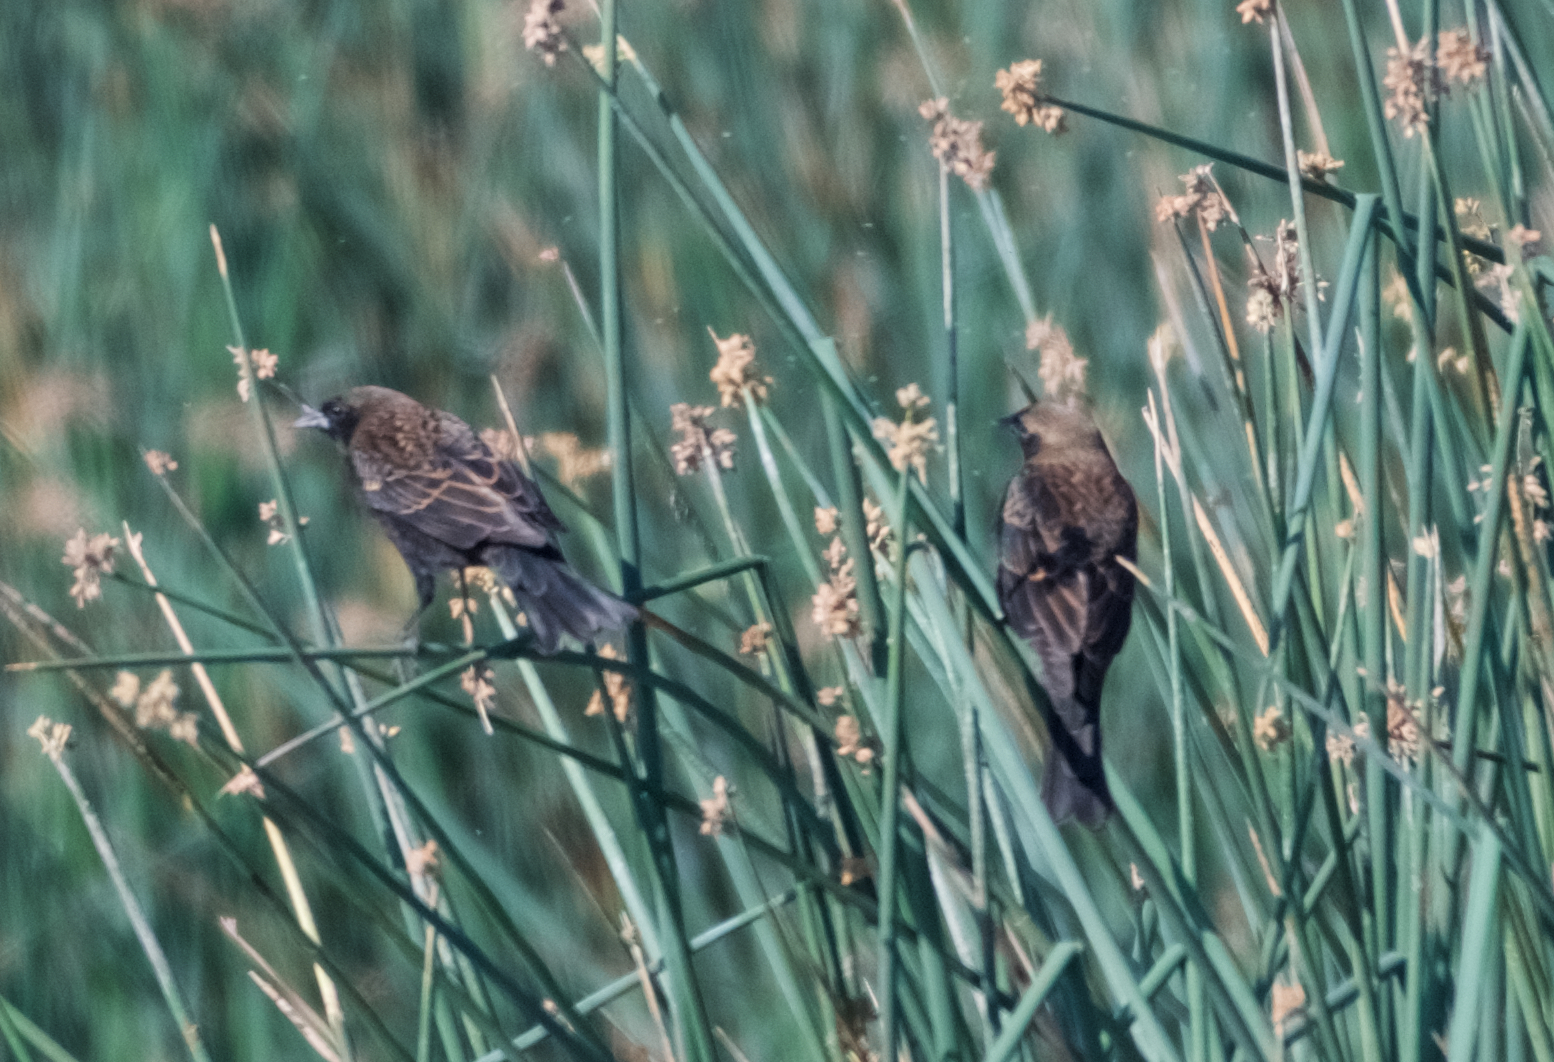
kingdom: Animalia
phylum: Chordata
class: Aves
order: Passeriformes
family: Icteridae
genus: Agelaius
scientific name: Agelaius phoeniceus
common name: Red-winged blackbird
